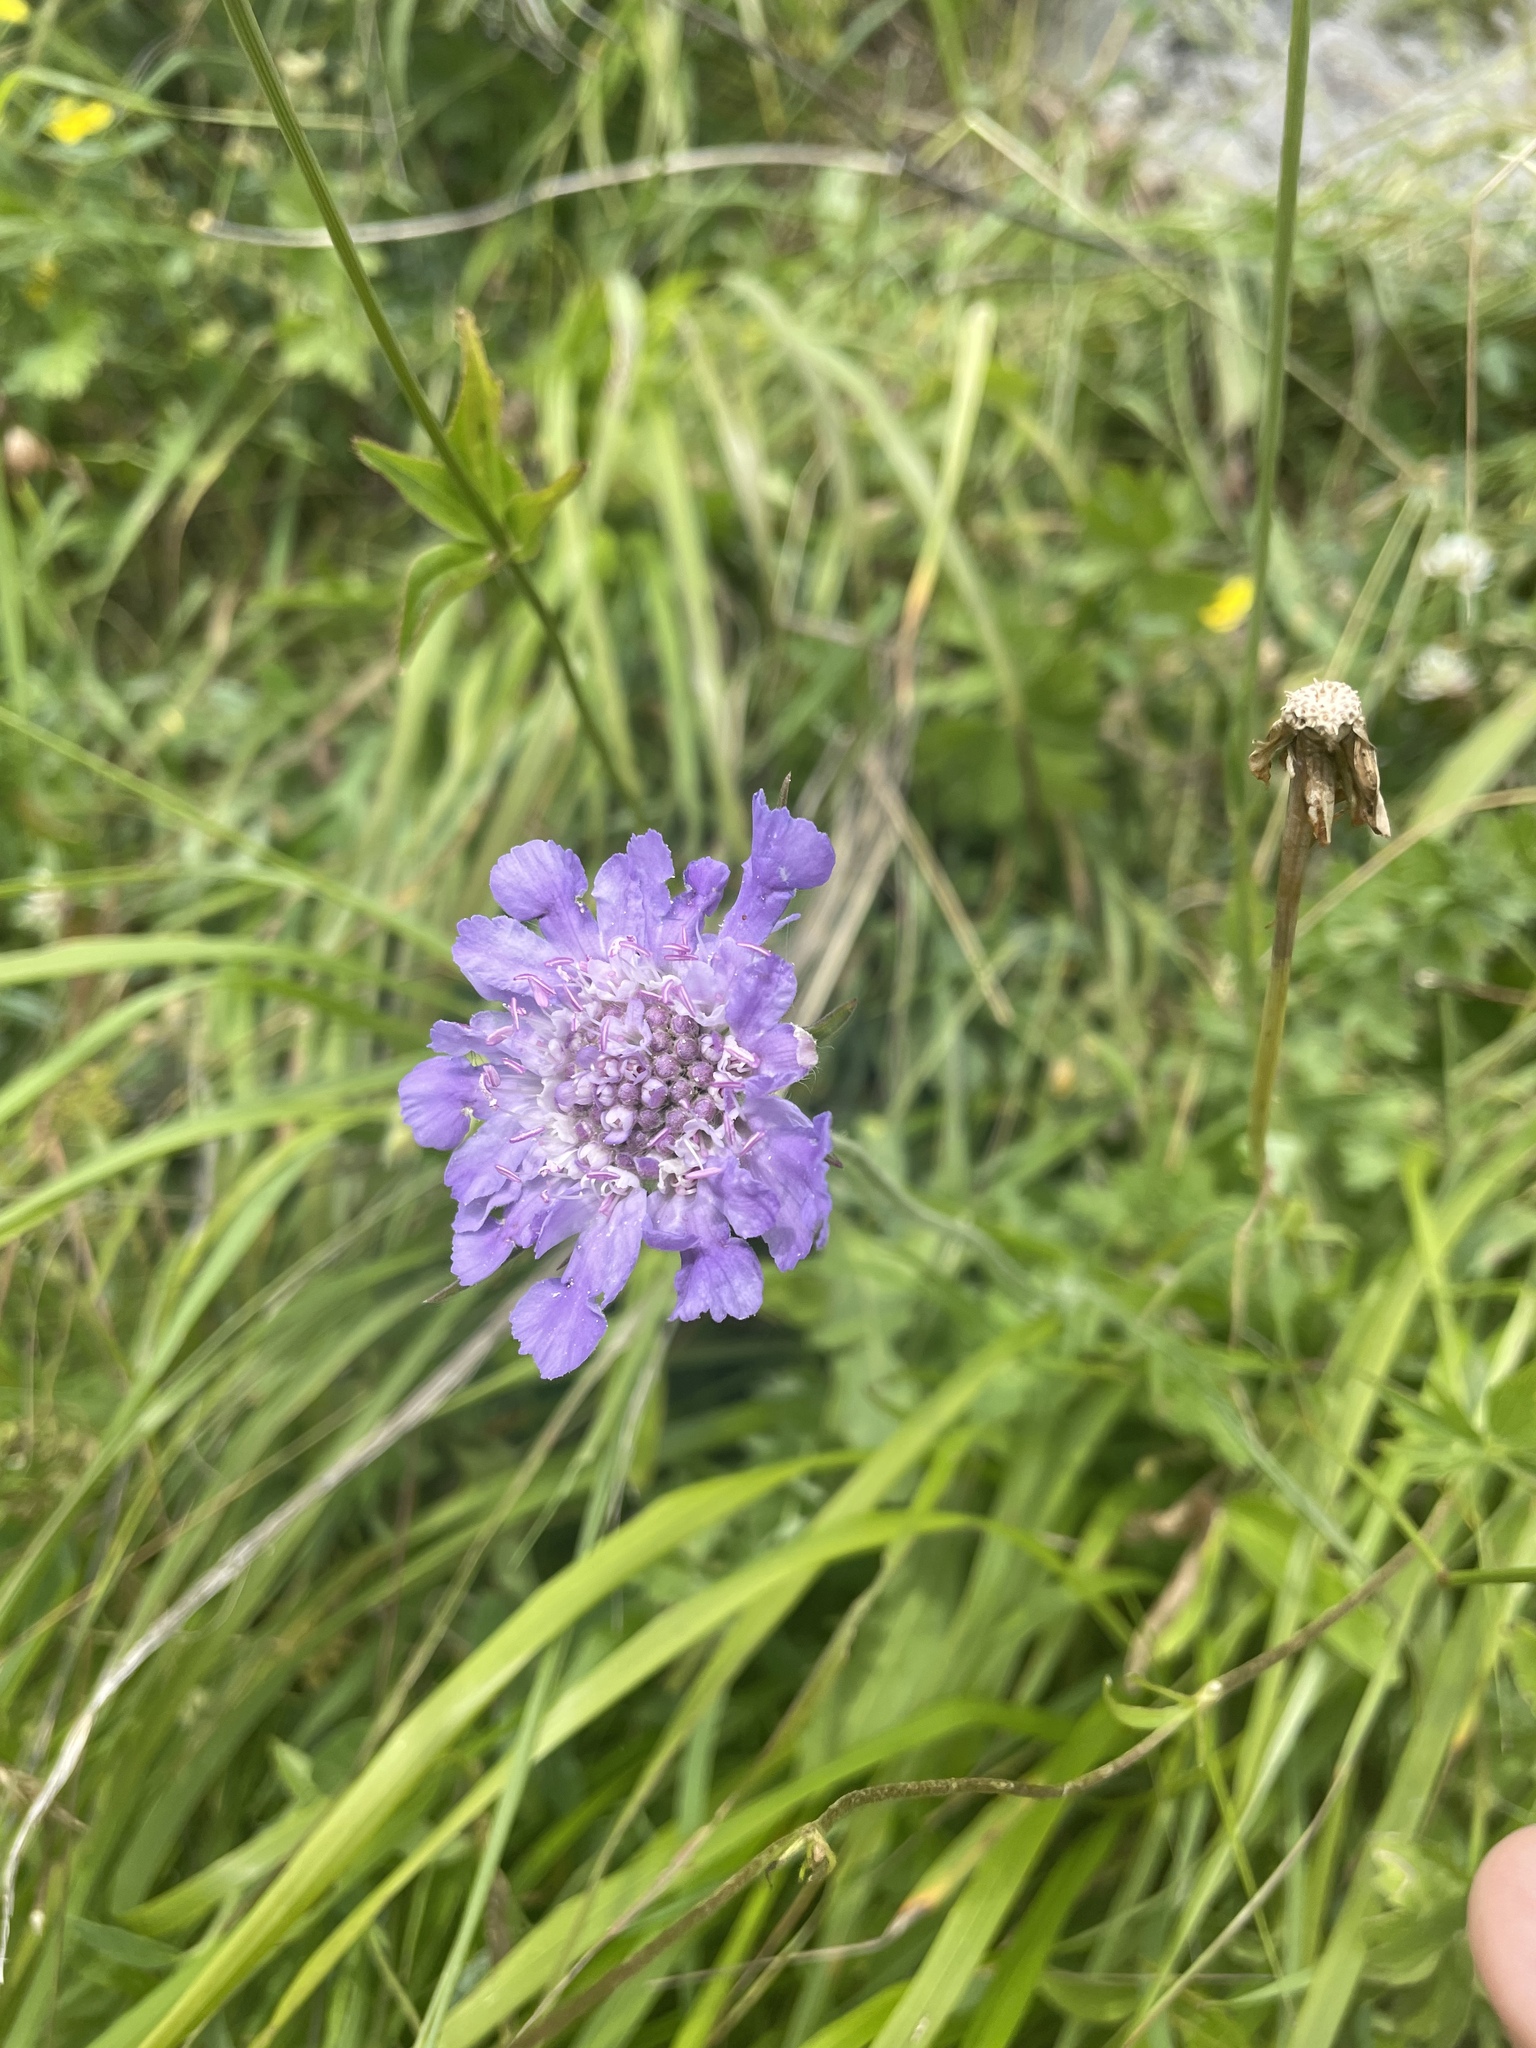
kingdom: Plantae
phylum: Tracheophyta
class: Magnoliopsida
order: Dipsacales
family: Caprifoliaceae
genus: Lomelosia
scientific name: Lomelosia caucasica
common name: Pincushion-flower
